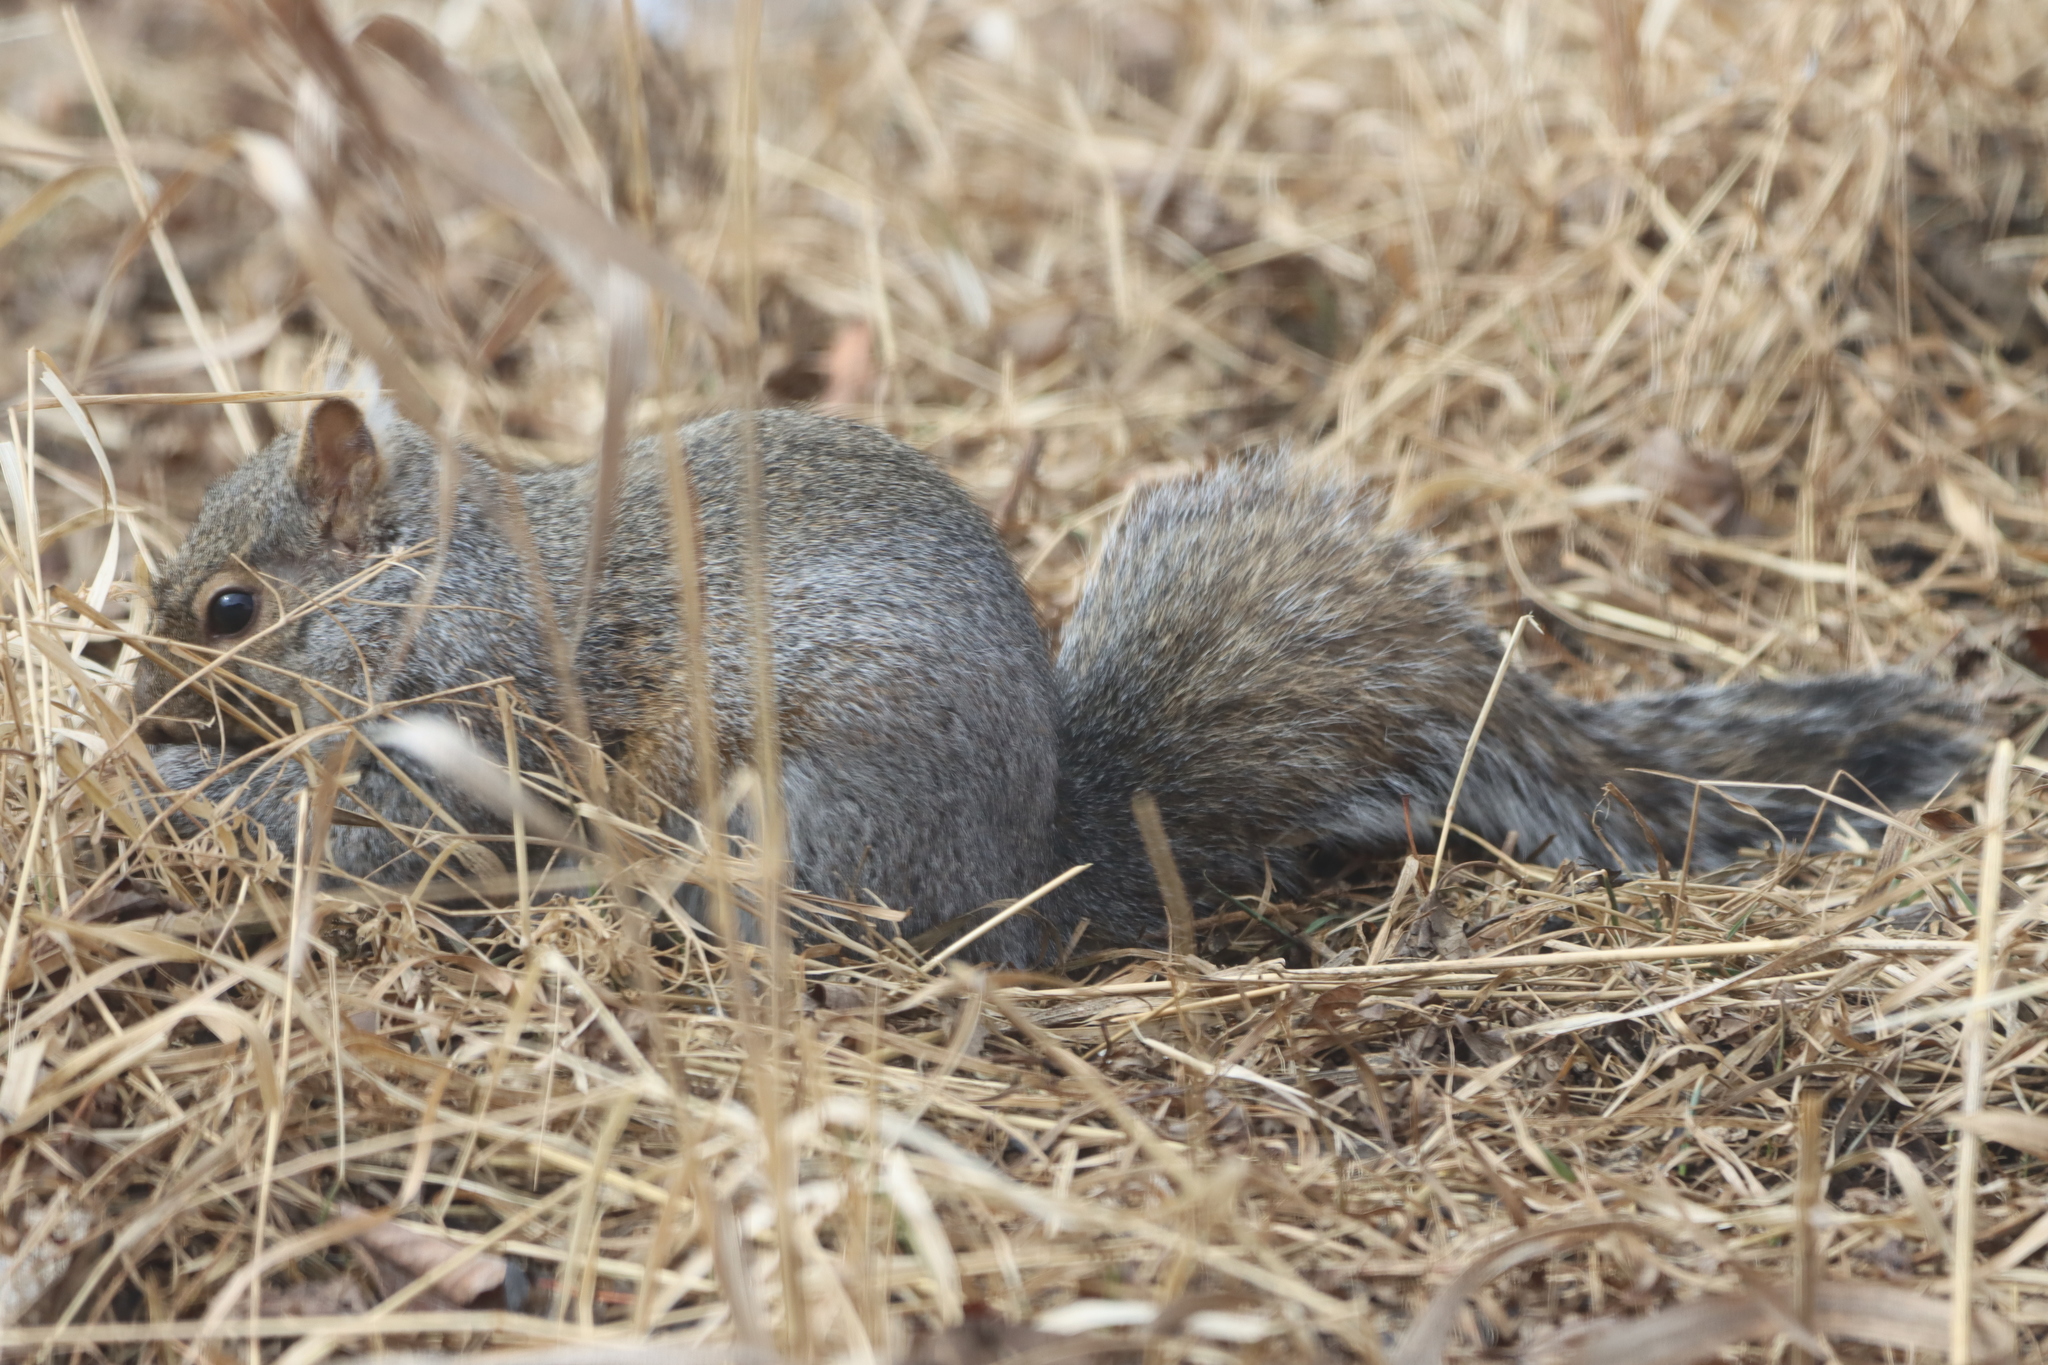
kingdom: Animalia
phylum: Chordata
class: Mammalia
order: Rodentia
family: Sciuridae
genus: Sciurus
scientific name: Sciurus carolinensis
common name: Eastern gray squirrel
